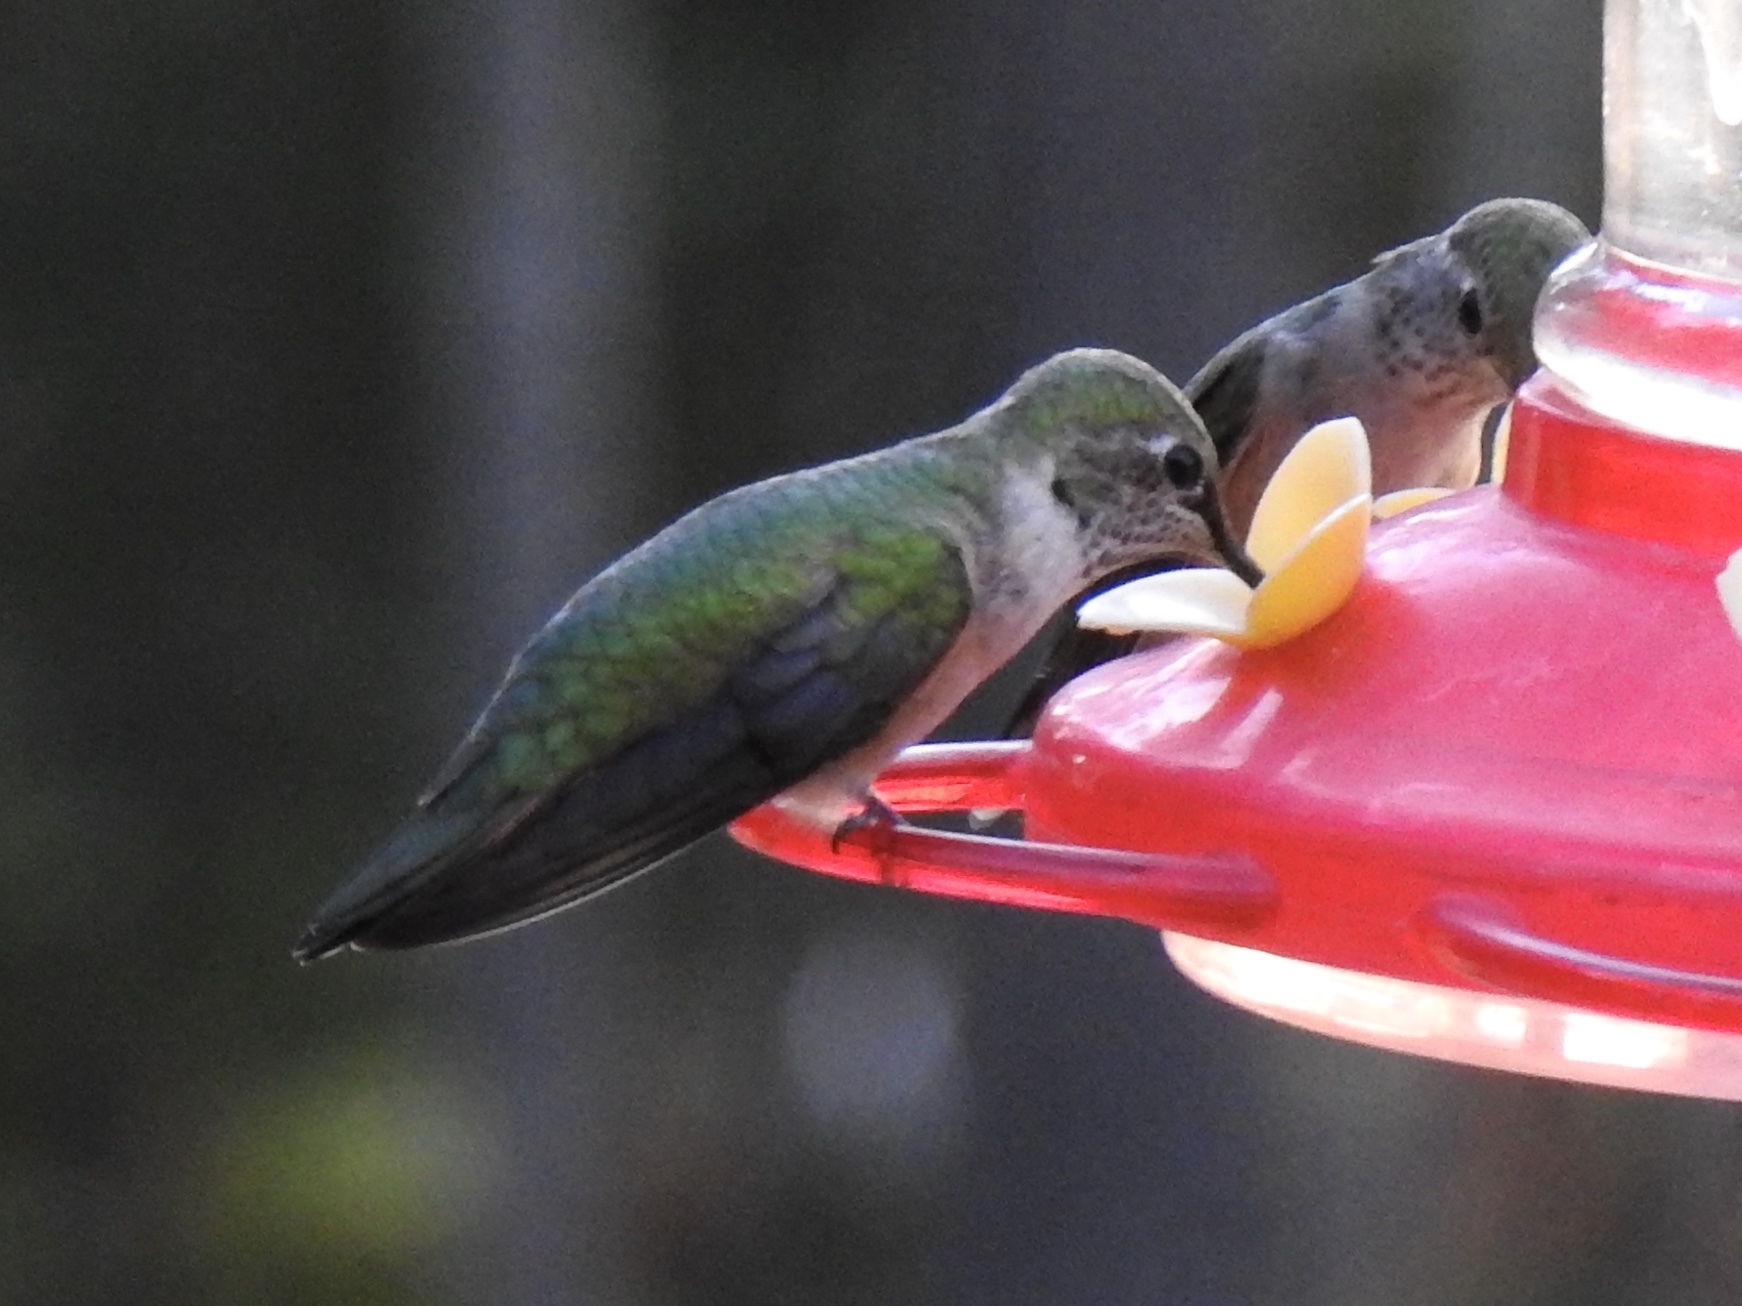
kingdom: Animalia
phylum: Chordata
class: Aves
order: Apodiformes
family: Trochilidae
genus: Selasphorus
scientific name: Selasphorus platycercus
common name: Broad-tailed hummingbird
